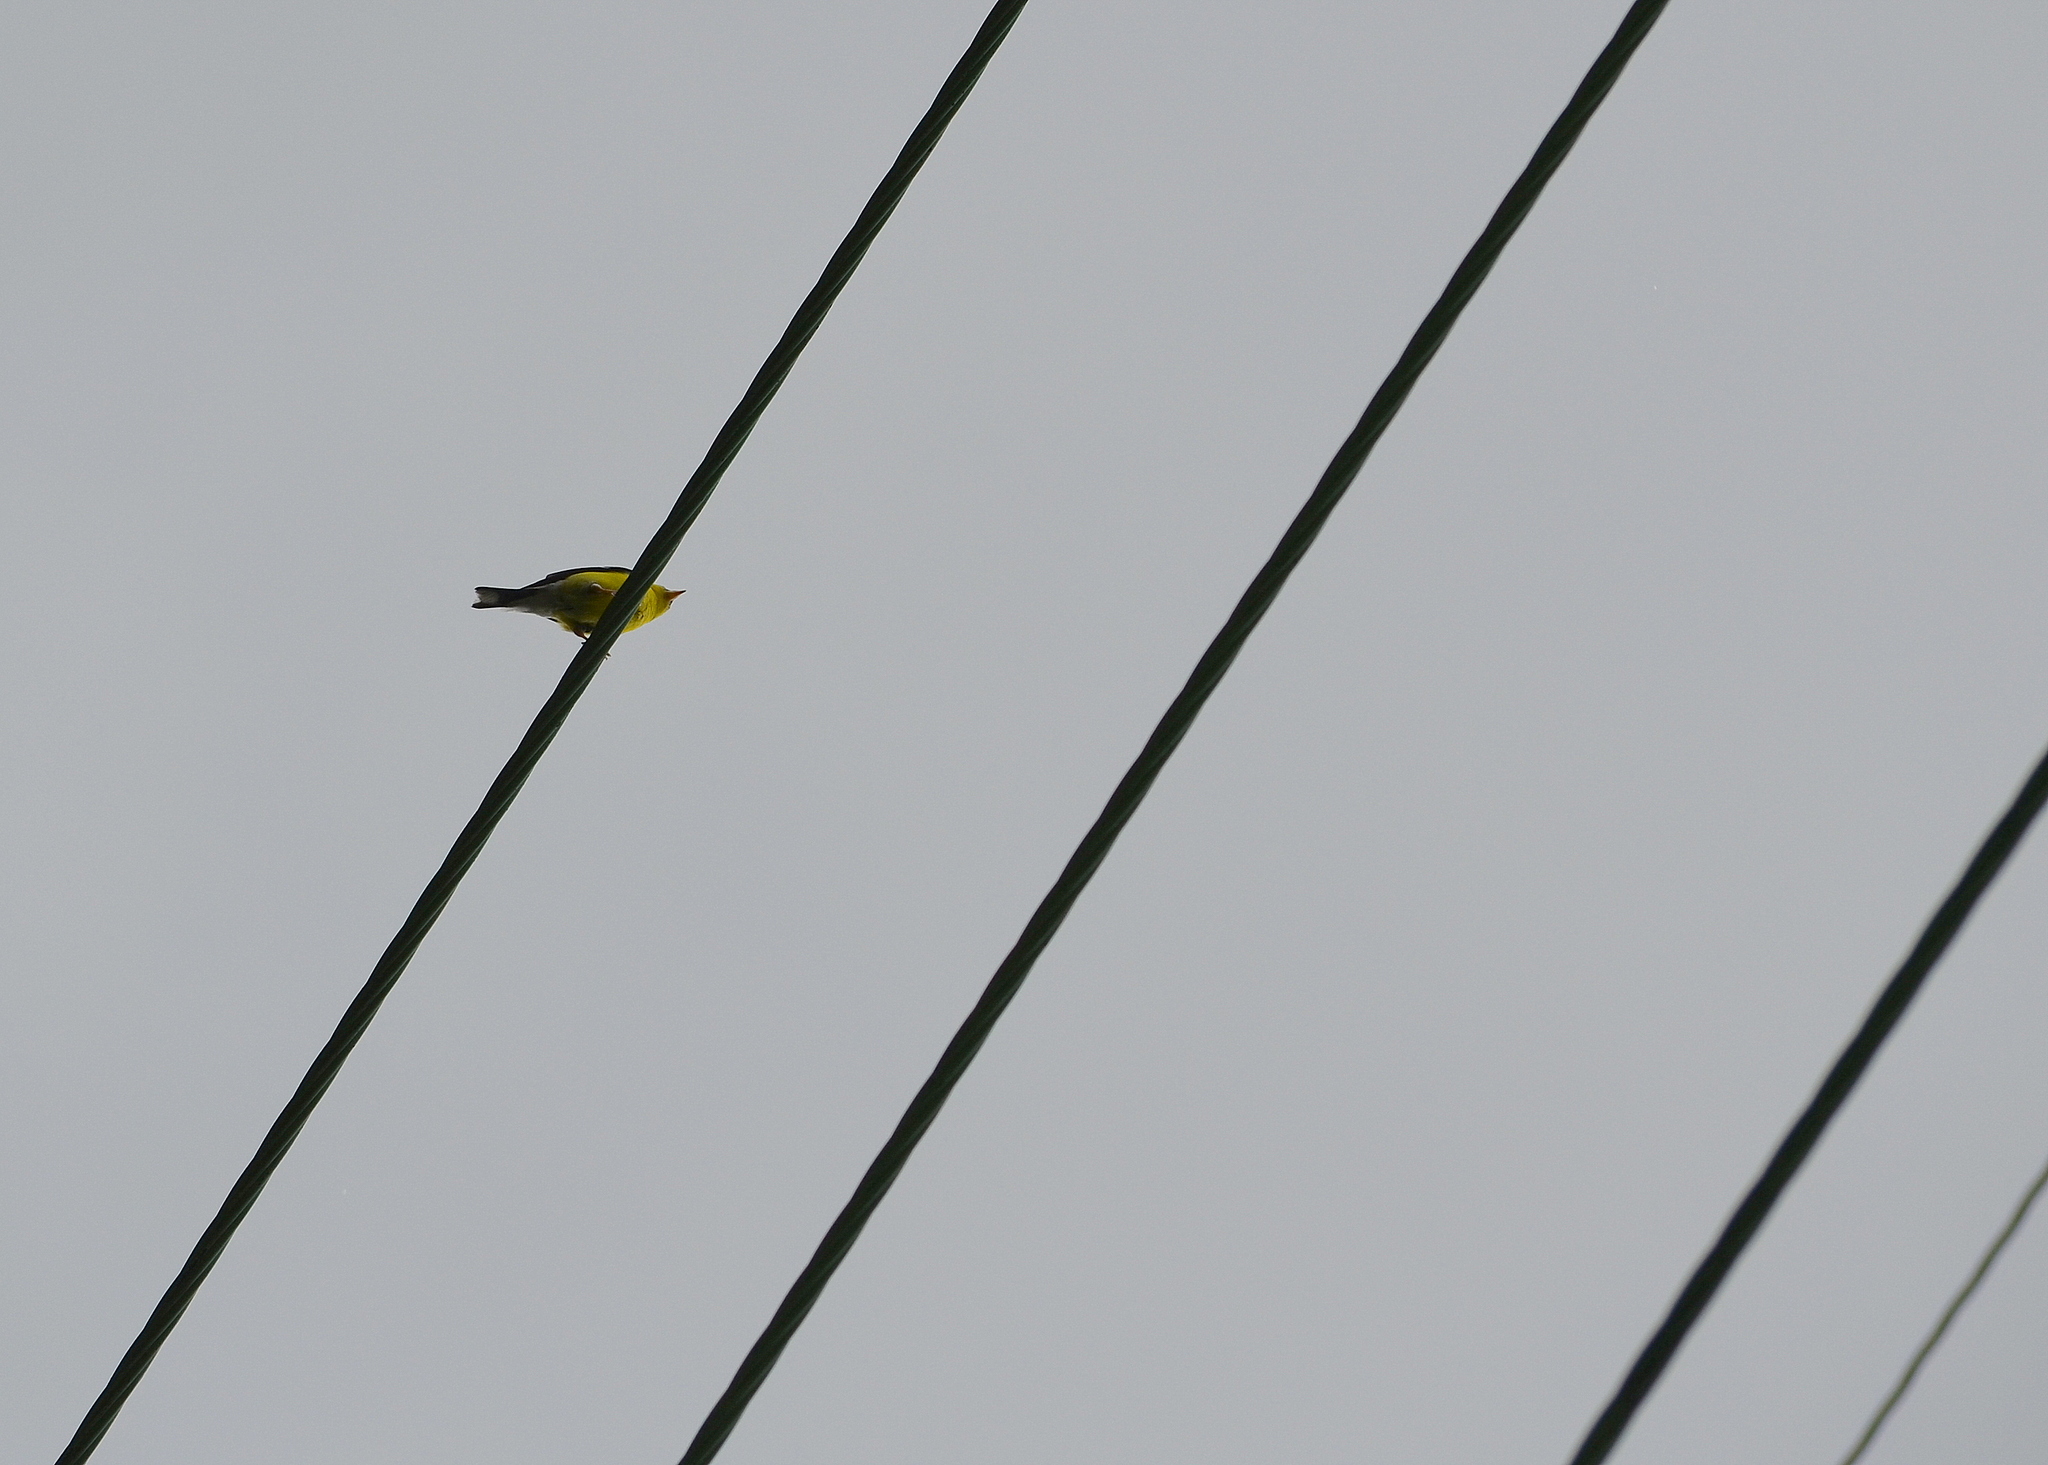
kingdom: Animalia
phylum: Chordata
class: Aves
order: Passeriformes
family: Fringillidae
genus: Spinus
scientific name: Spinus tristis
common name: American goldfinch
